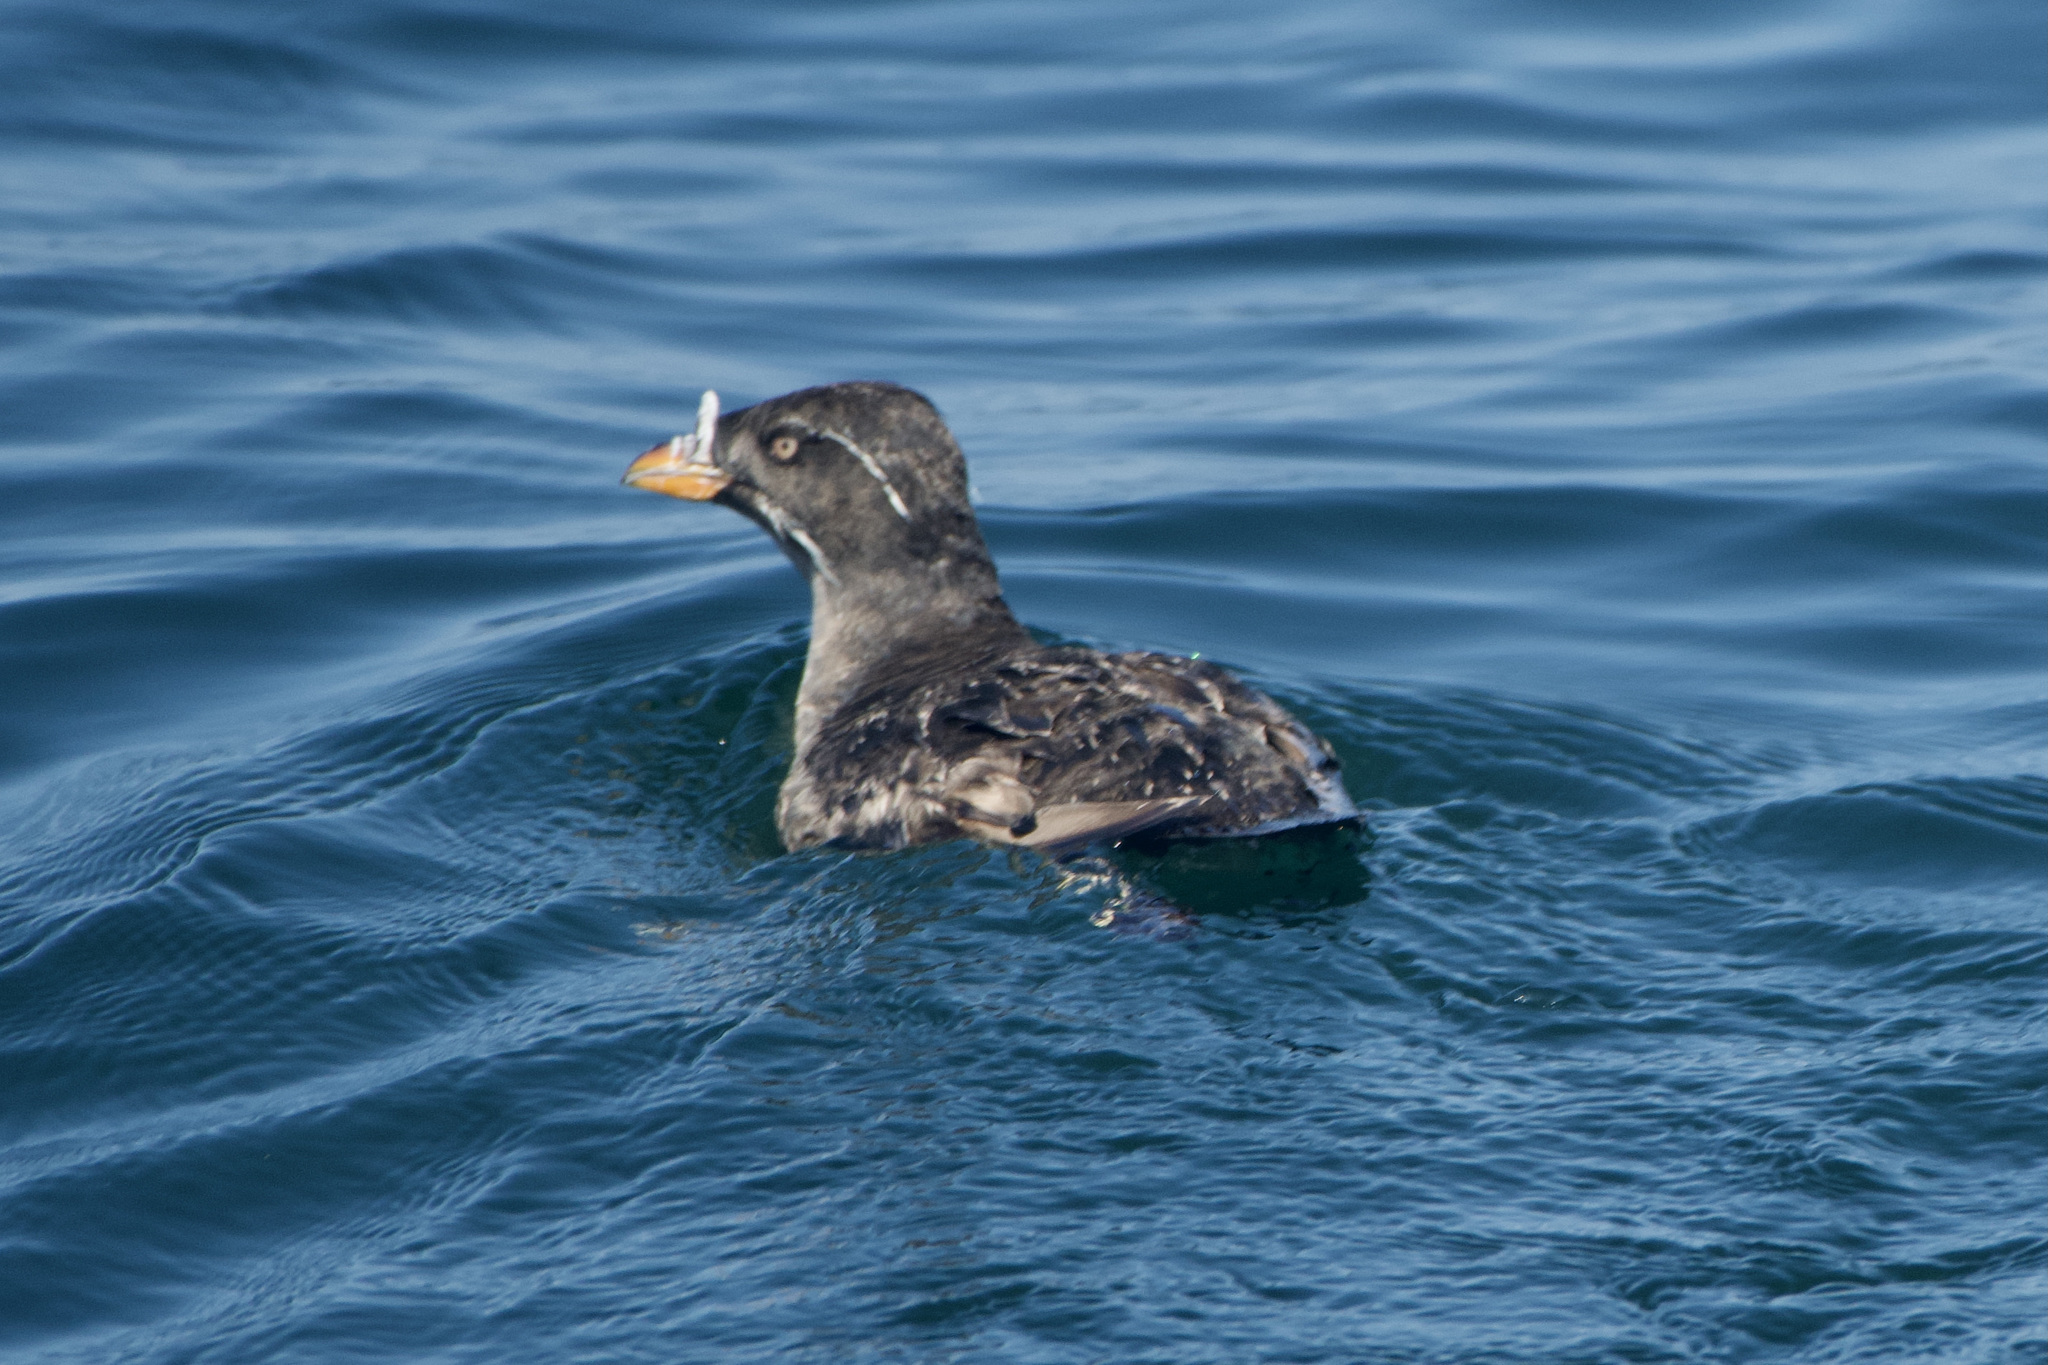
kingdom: Animalia
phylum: Chordata
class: Aves
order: Charadriiformes
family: Alcidae
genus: Cerorhinca
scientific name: Cerorhinca monocerata
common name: Rhinoceros auklet
